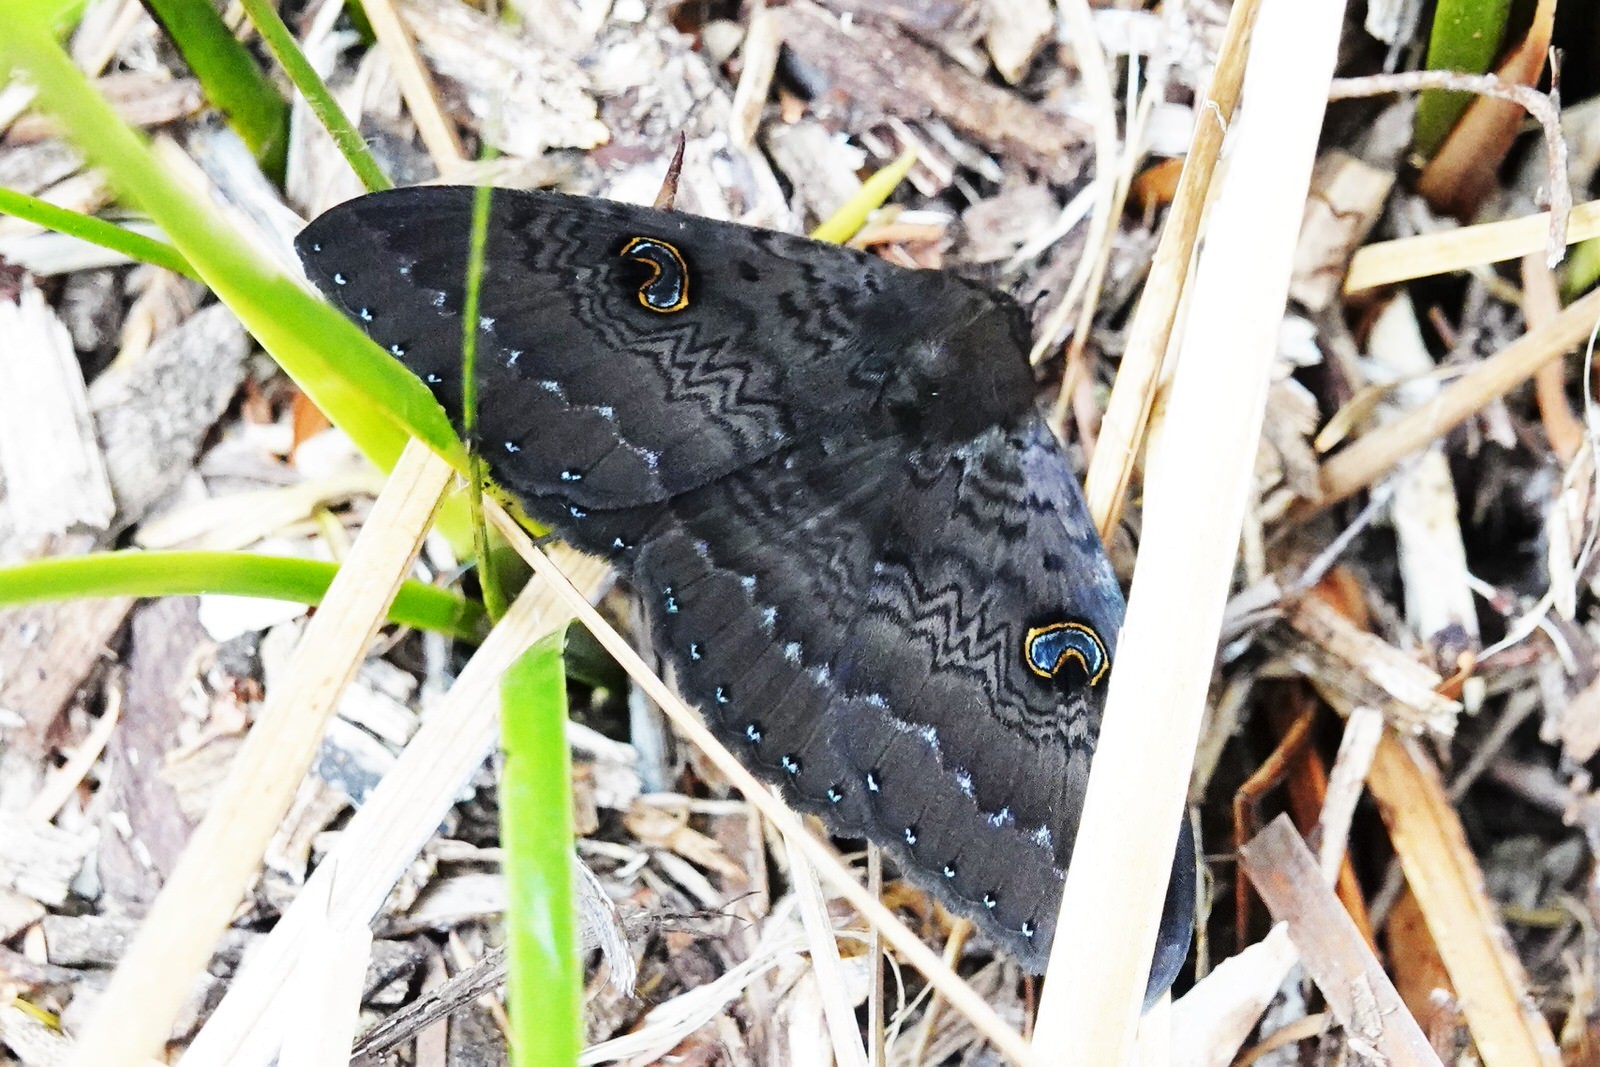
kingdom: Animalia
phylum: Arthropoda
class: Insecta
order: Lepidoptera
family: Erebidae
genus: Dasypodia
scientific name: Dasypodia cymatodes
